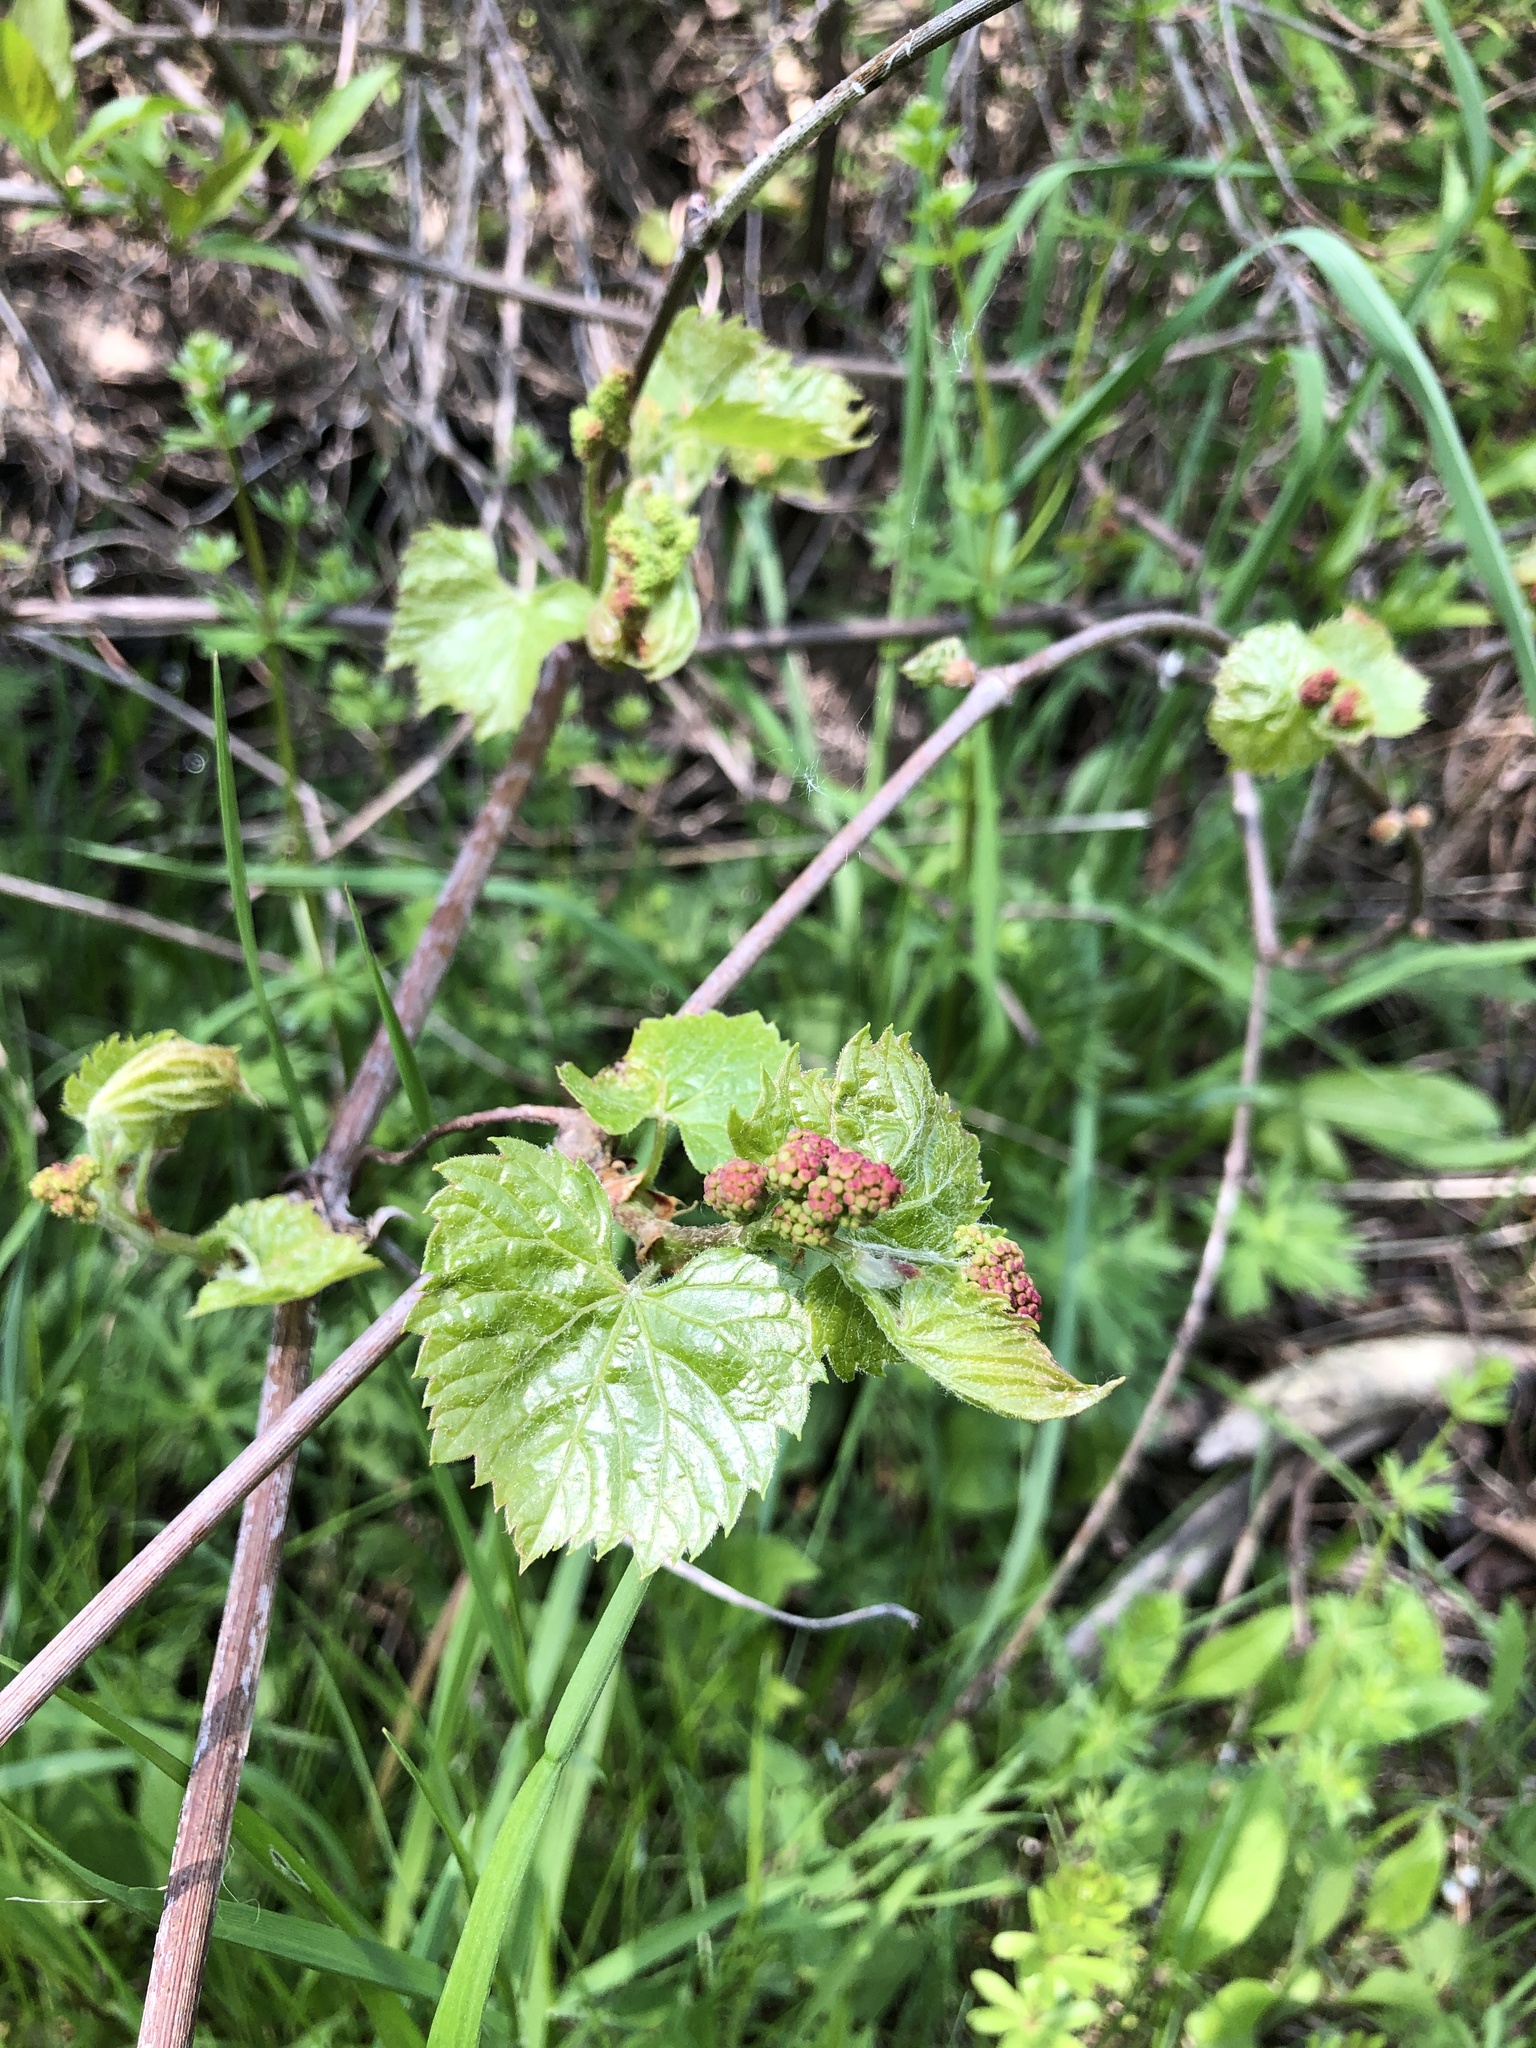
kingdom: Plantae
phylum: Tracheophyta
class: Magnoliopsida
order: Vitales
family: Vitaceae
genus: Vitis
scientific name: Vitis riparia
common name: Frost grape
